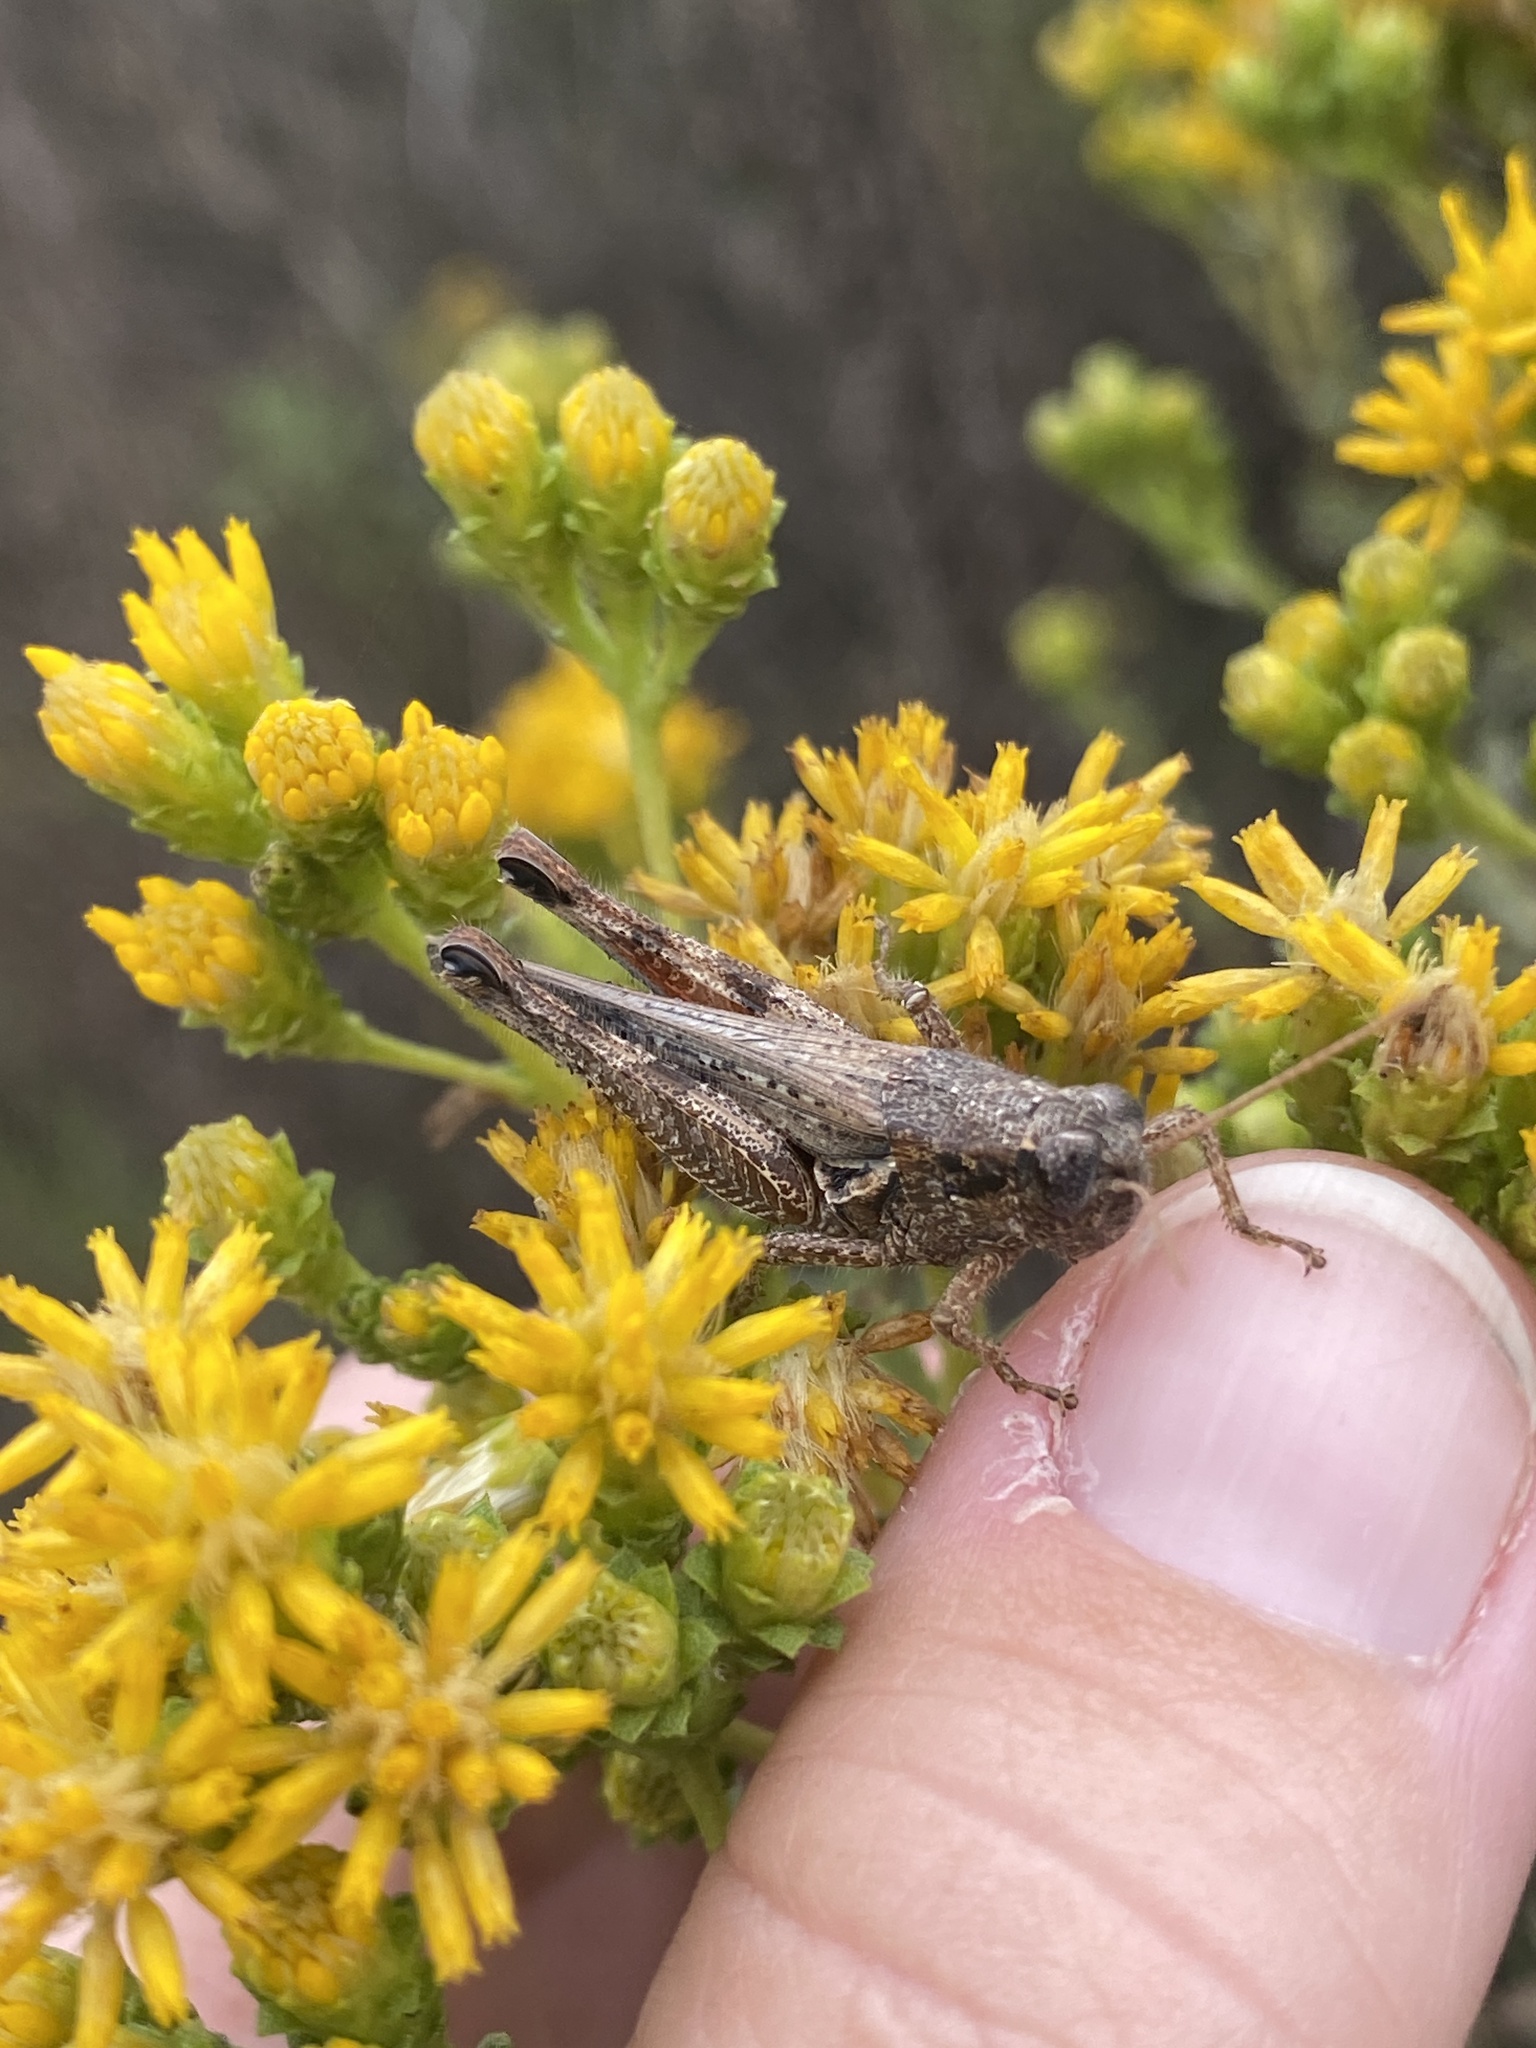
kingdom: Animalia
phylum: Arthropoda
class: Insecta
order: Orthoptera
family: Acrididae
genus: Melanoplus
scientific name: Melanoplus cinereus
